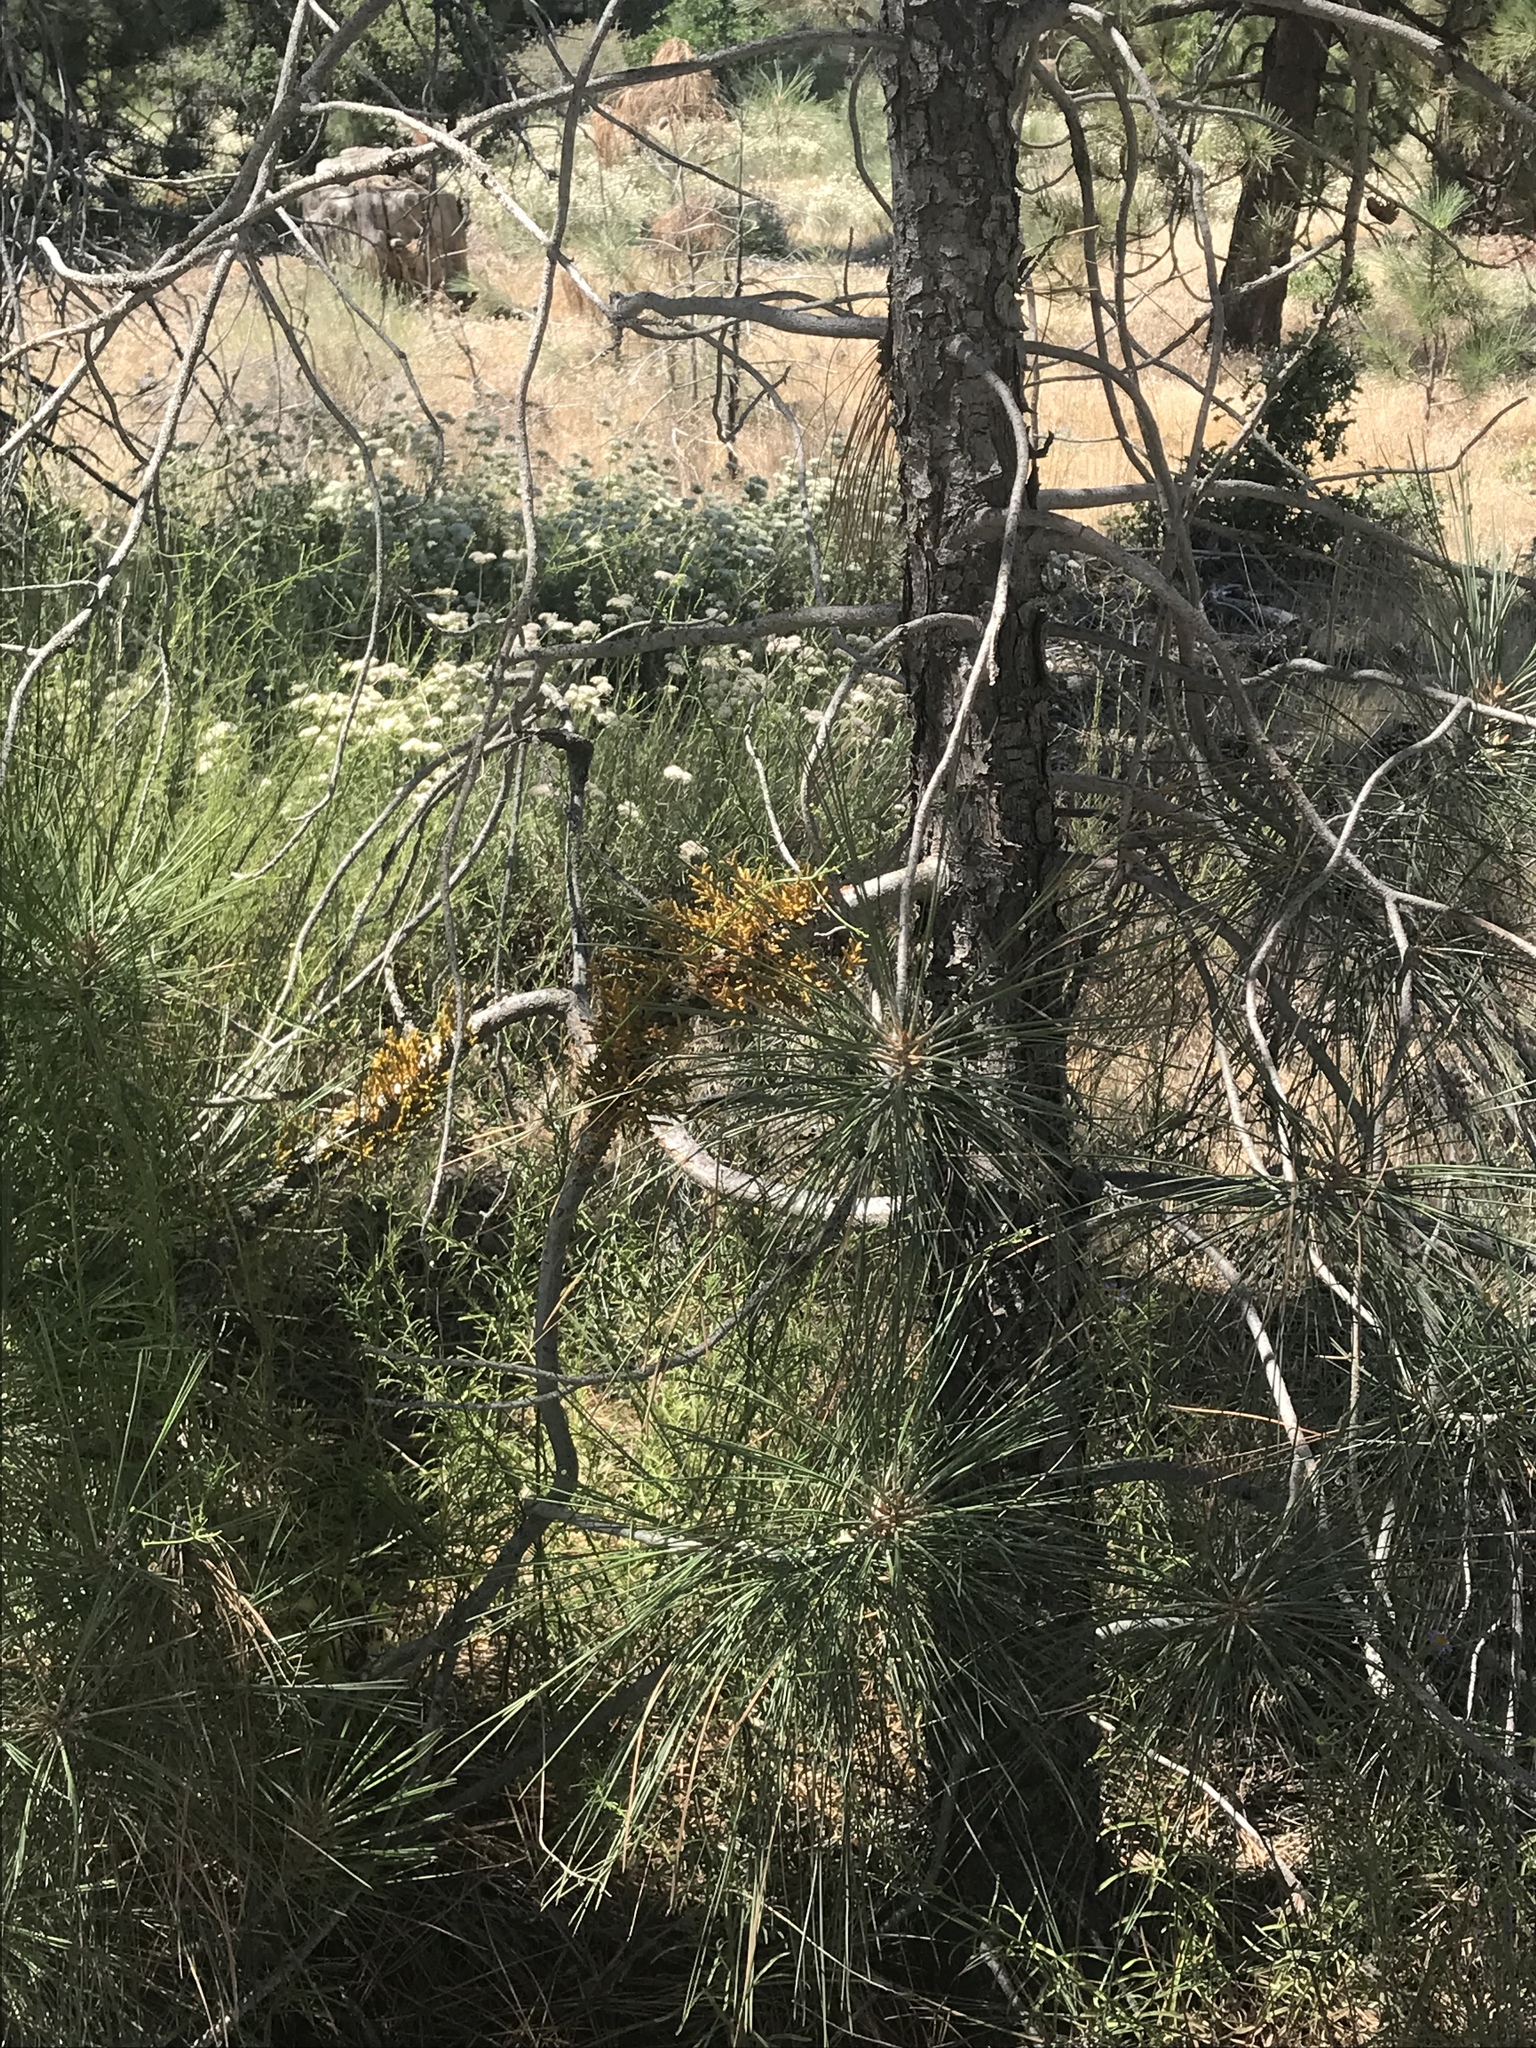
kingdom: Plantae
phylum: Tracheophyta
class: Magnoliopsida
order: Santalales
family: Viscaceae
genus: Arceuthobium
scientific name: Arceuthobium campylopodum
